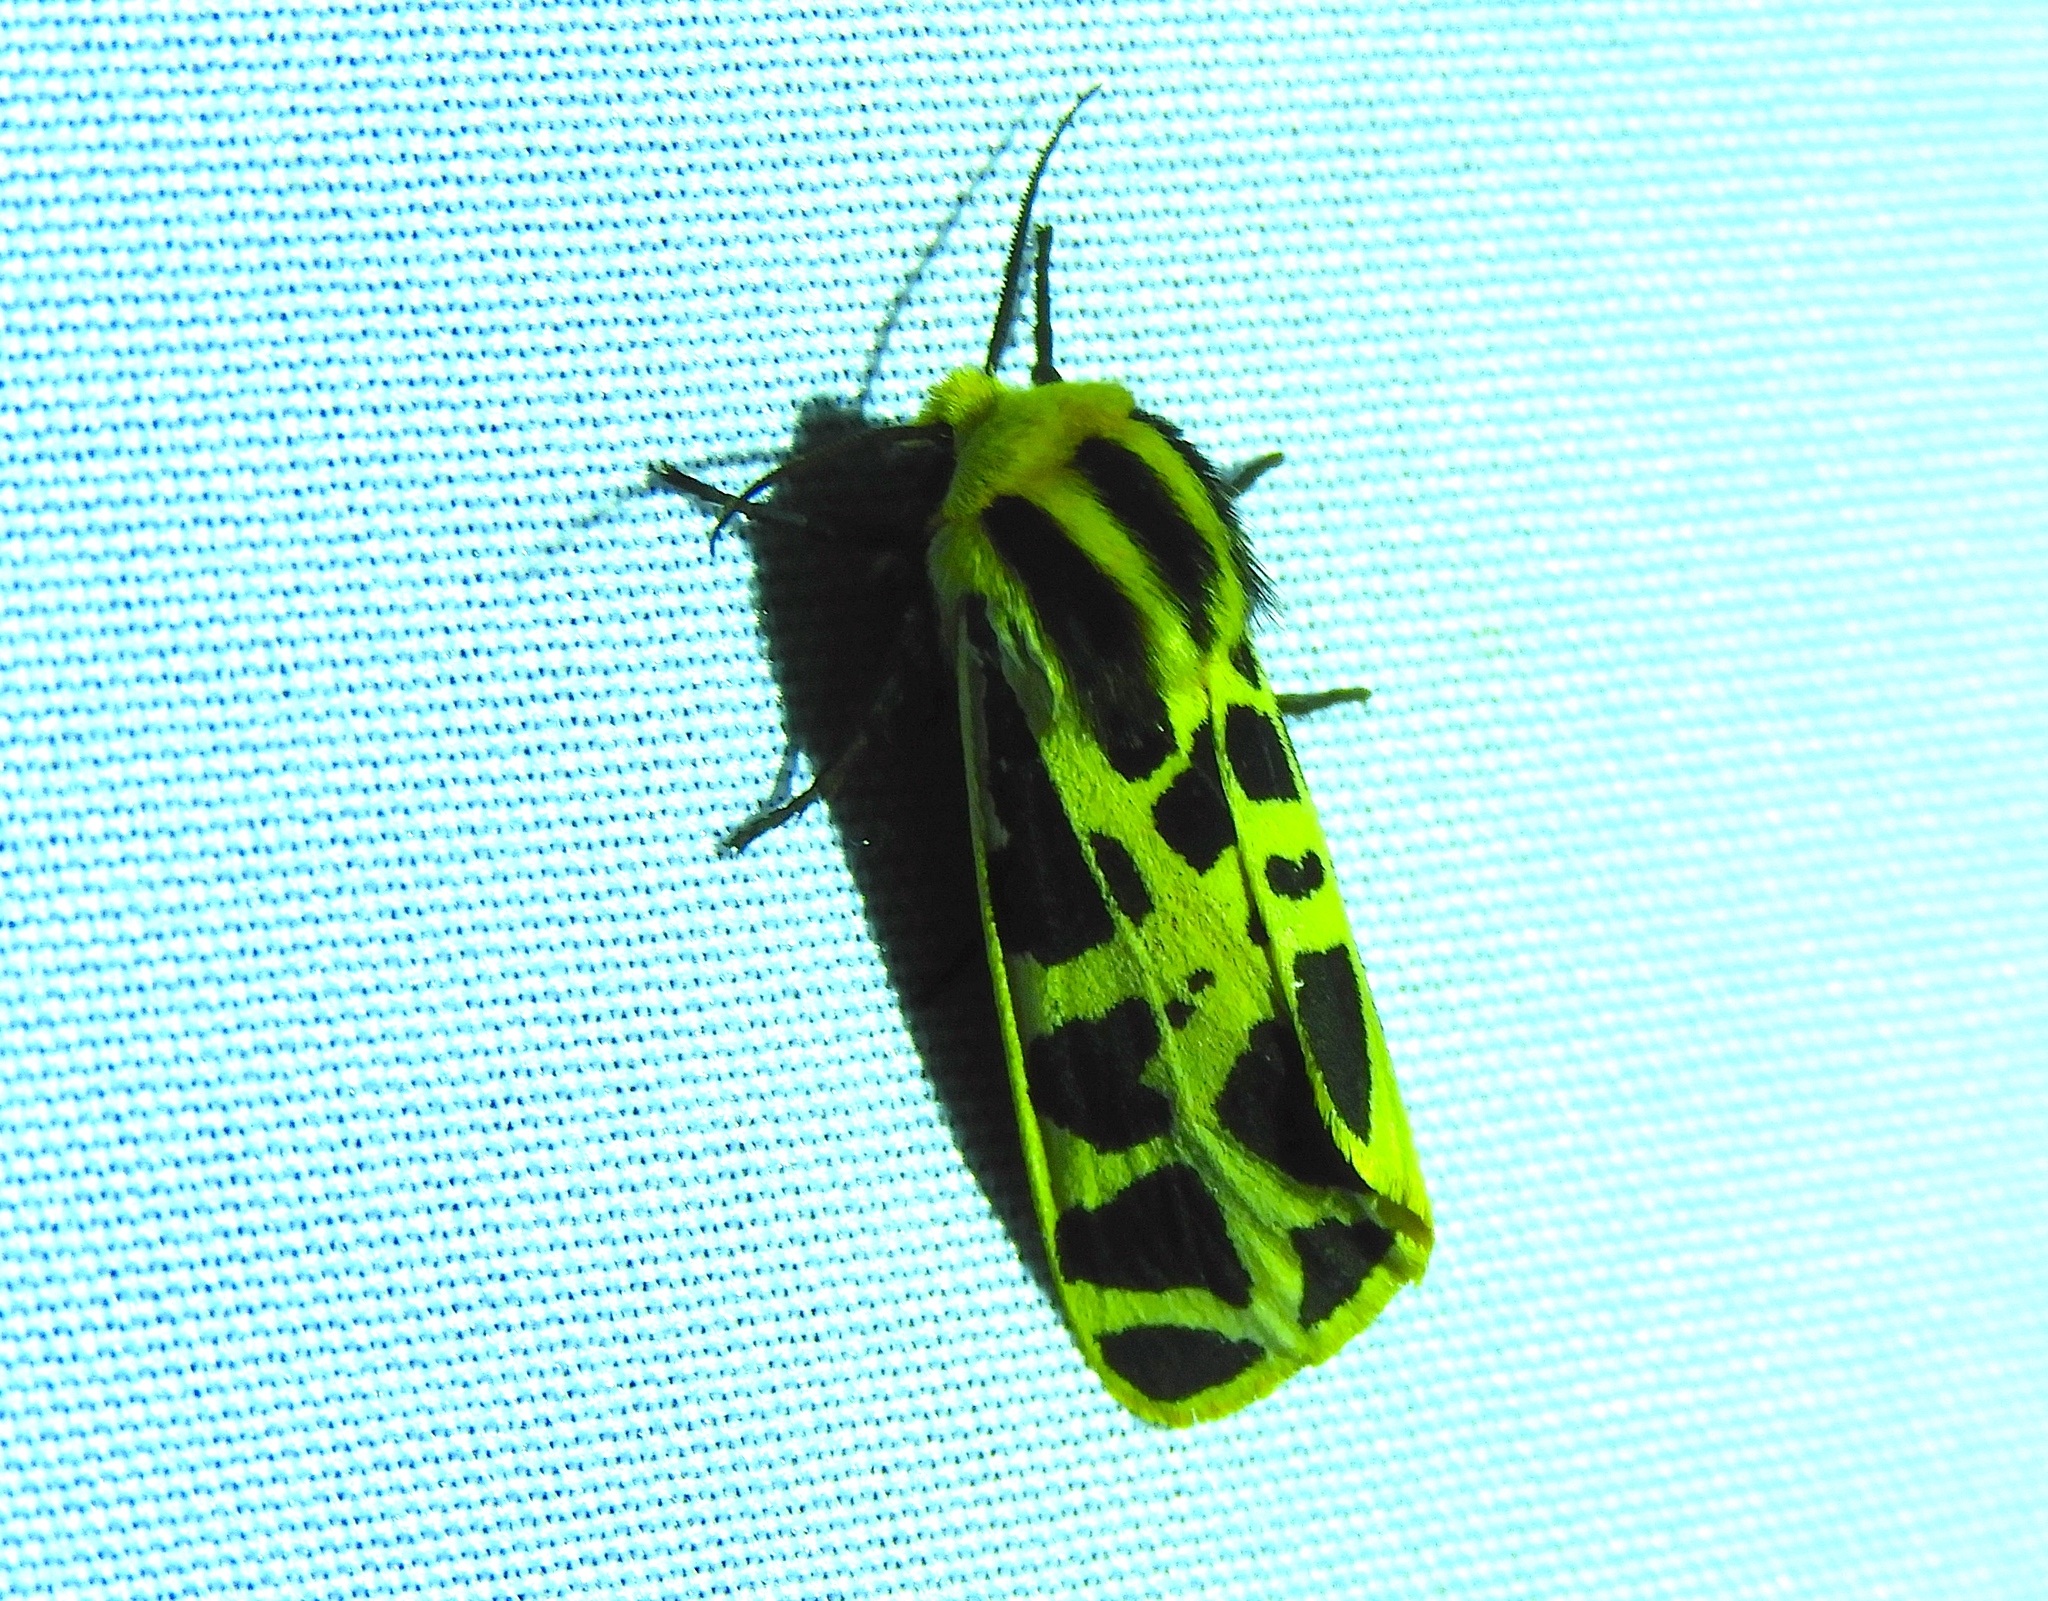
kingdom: Animalia
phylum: Arthropoda
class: Insecta
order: Lepidoptera
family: Erebidae
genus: Apantesis
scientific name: Apantesis
